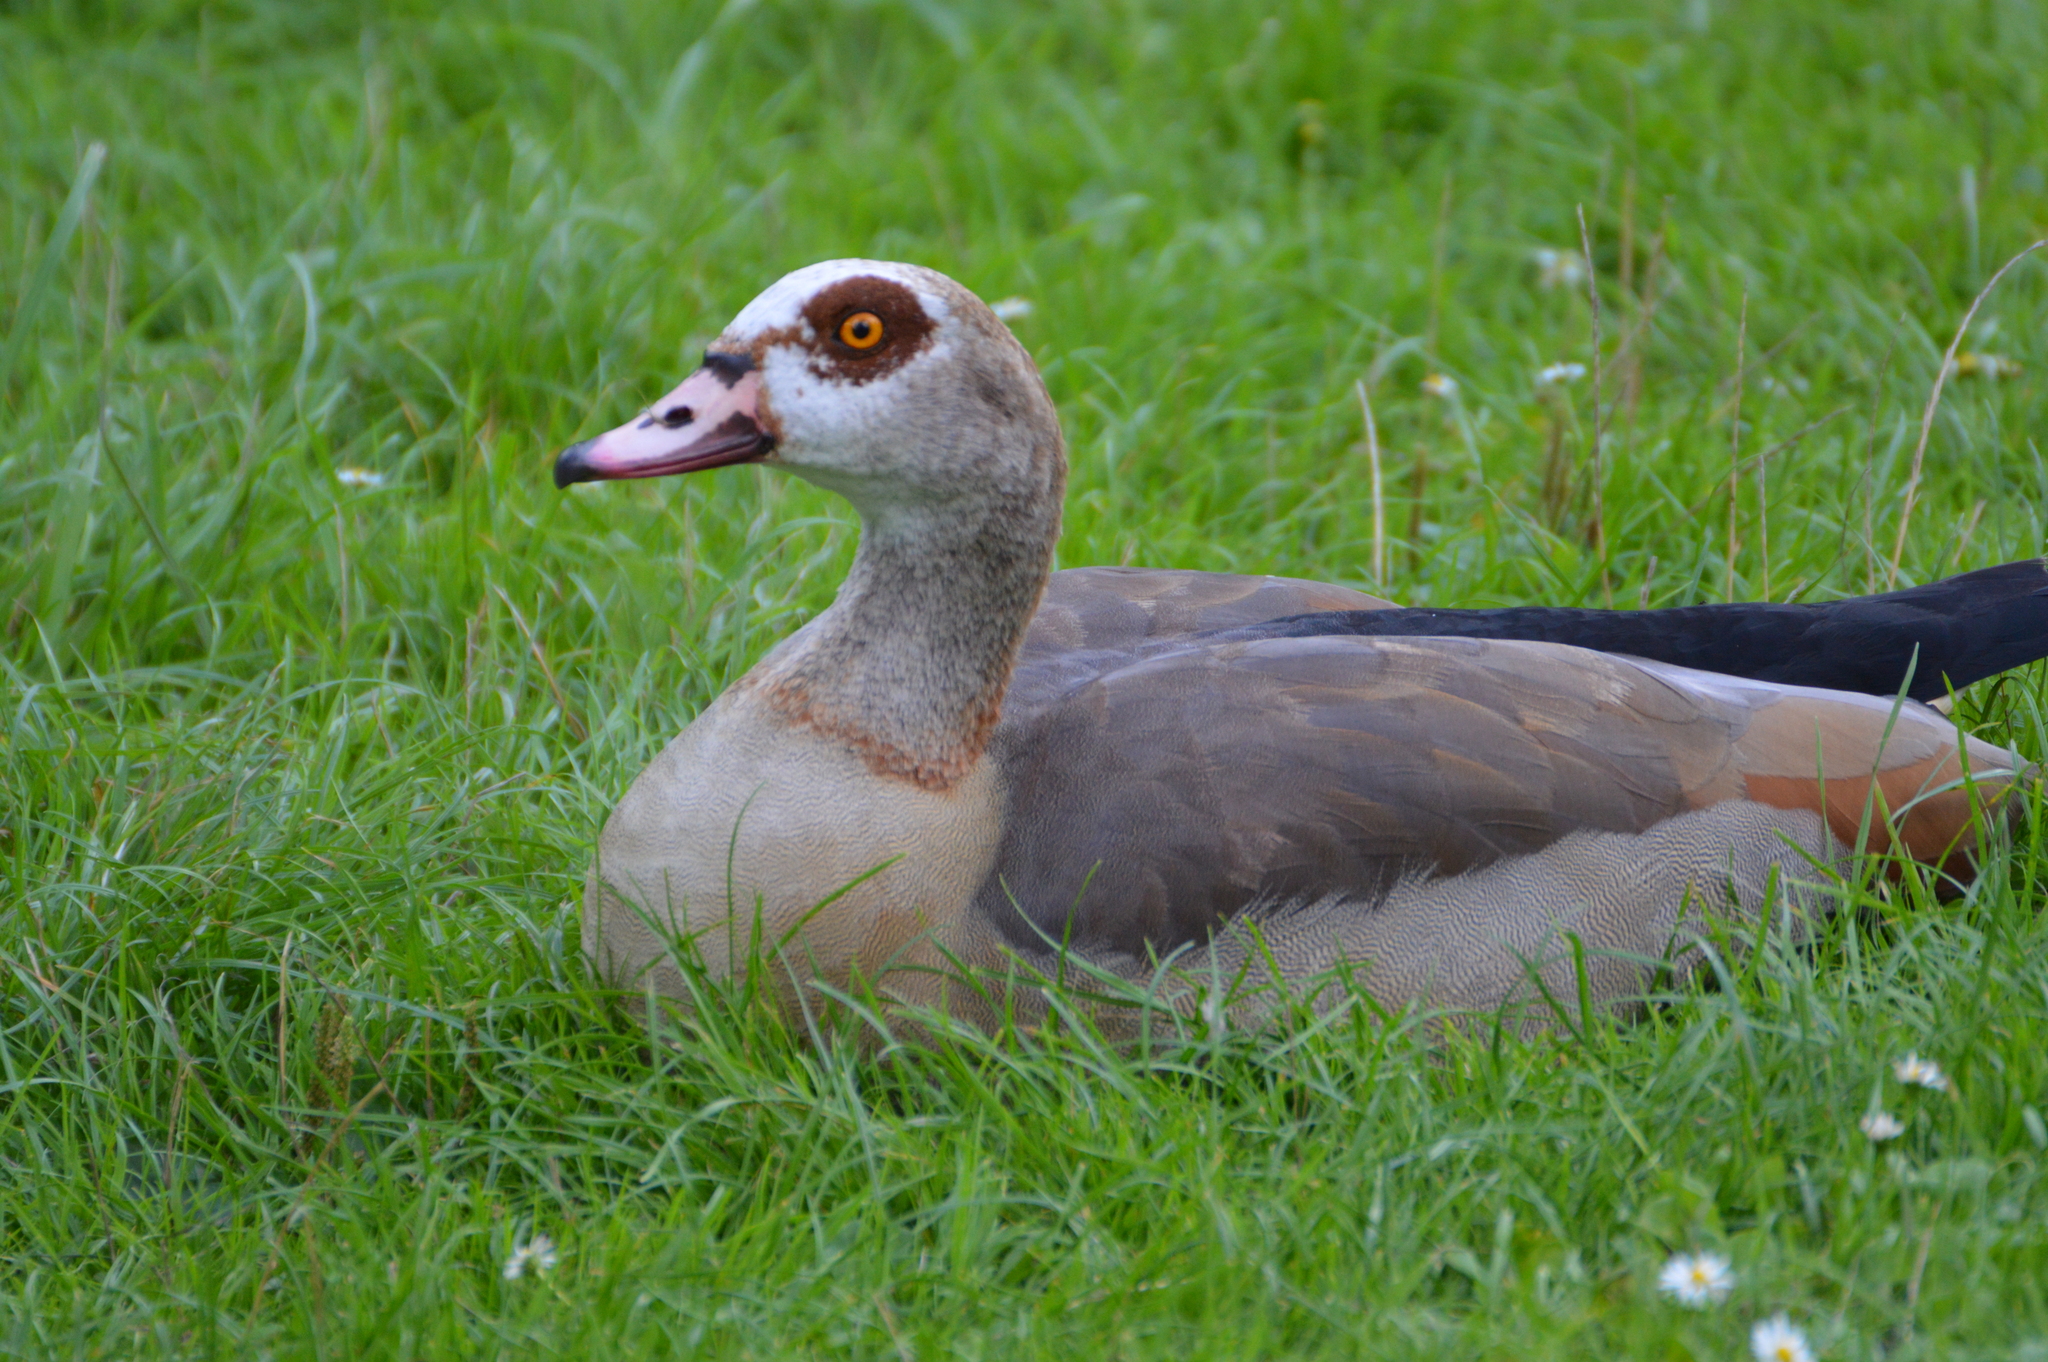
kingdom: Animalia
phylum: Chordata
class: Aves
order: Anseriformes
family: Anatidae
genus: Alopochen
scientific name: Alopochen aegyptiaca
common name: Egyptian goose
